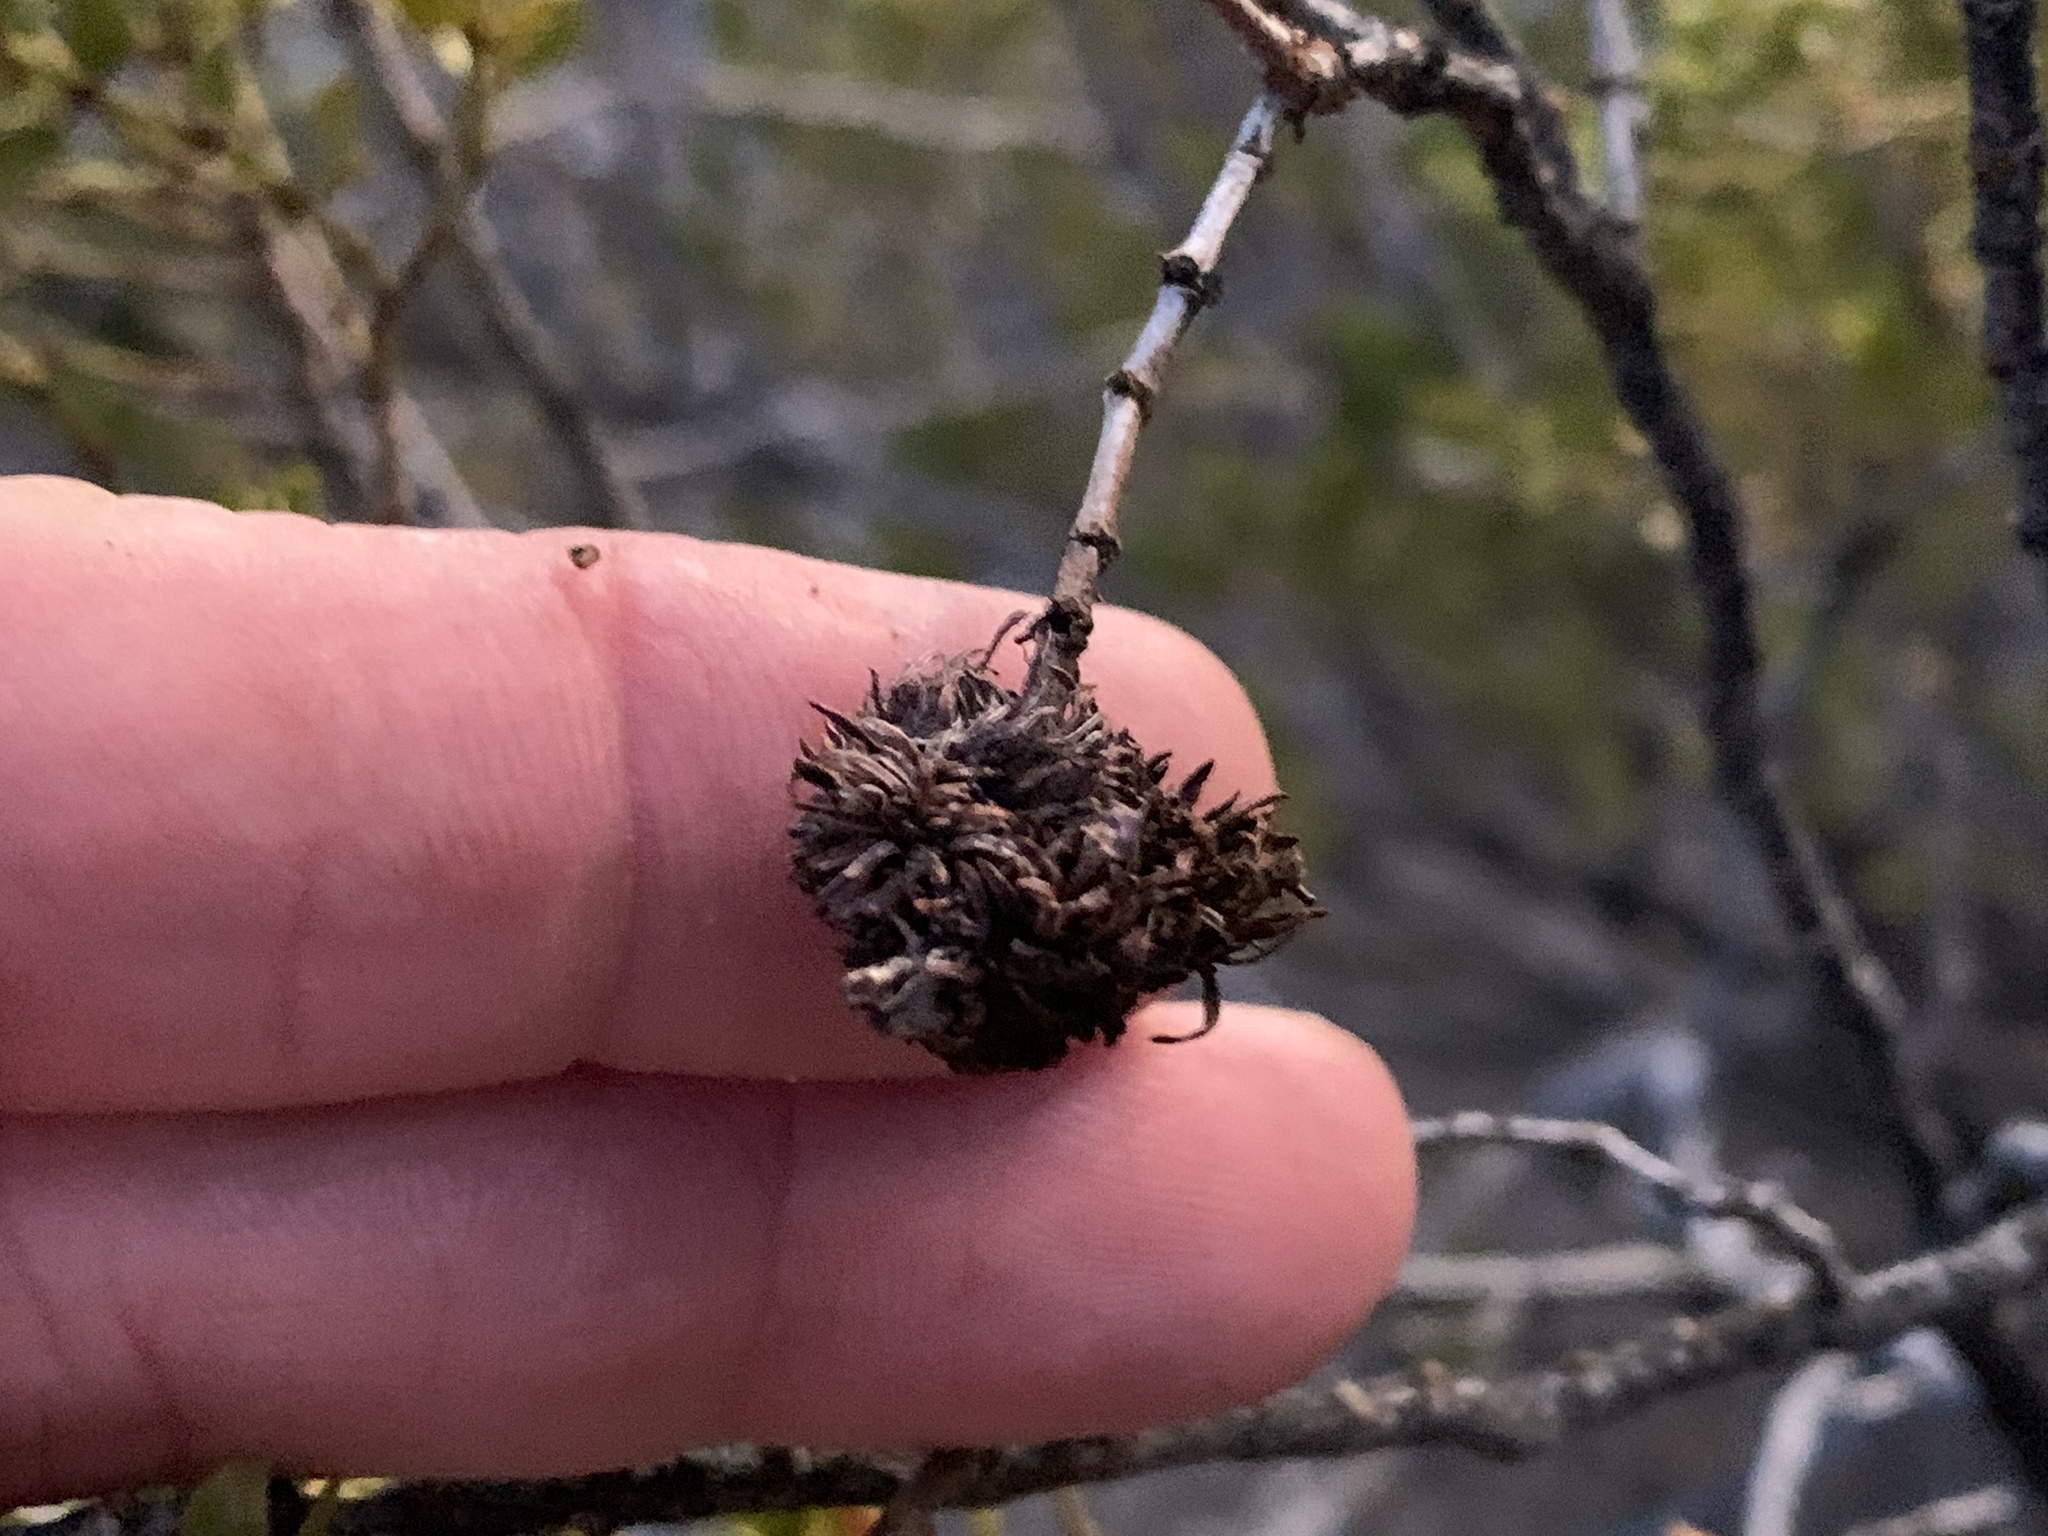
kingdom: Animalia
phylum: Arthropoda
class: Insecta
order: Diptera
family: Cecidomyiidae
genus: Asphondylia
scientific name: Asphondylia auripila
